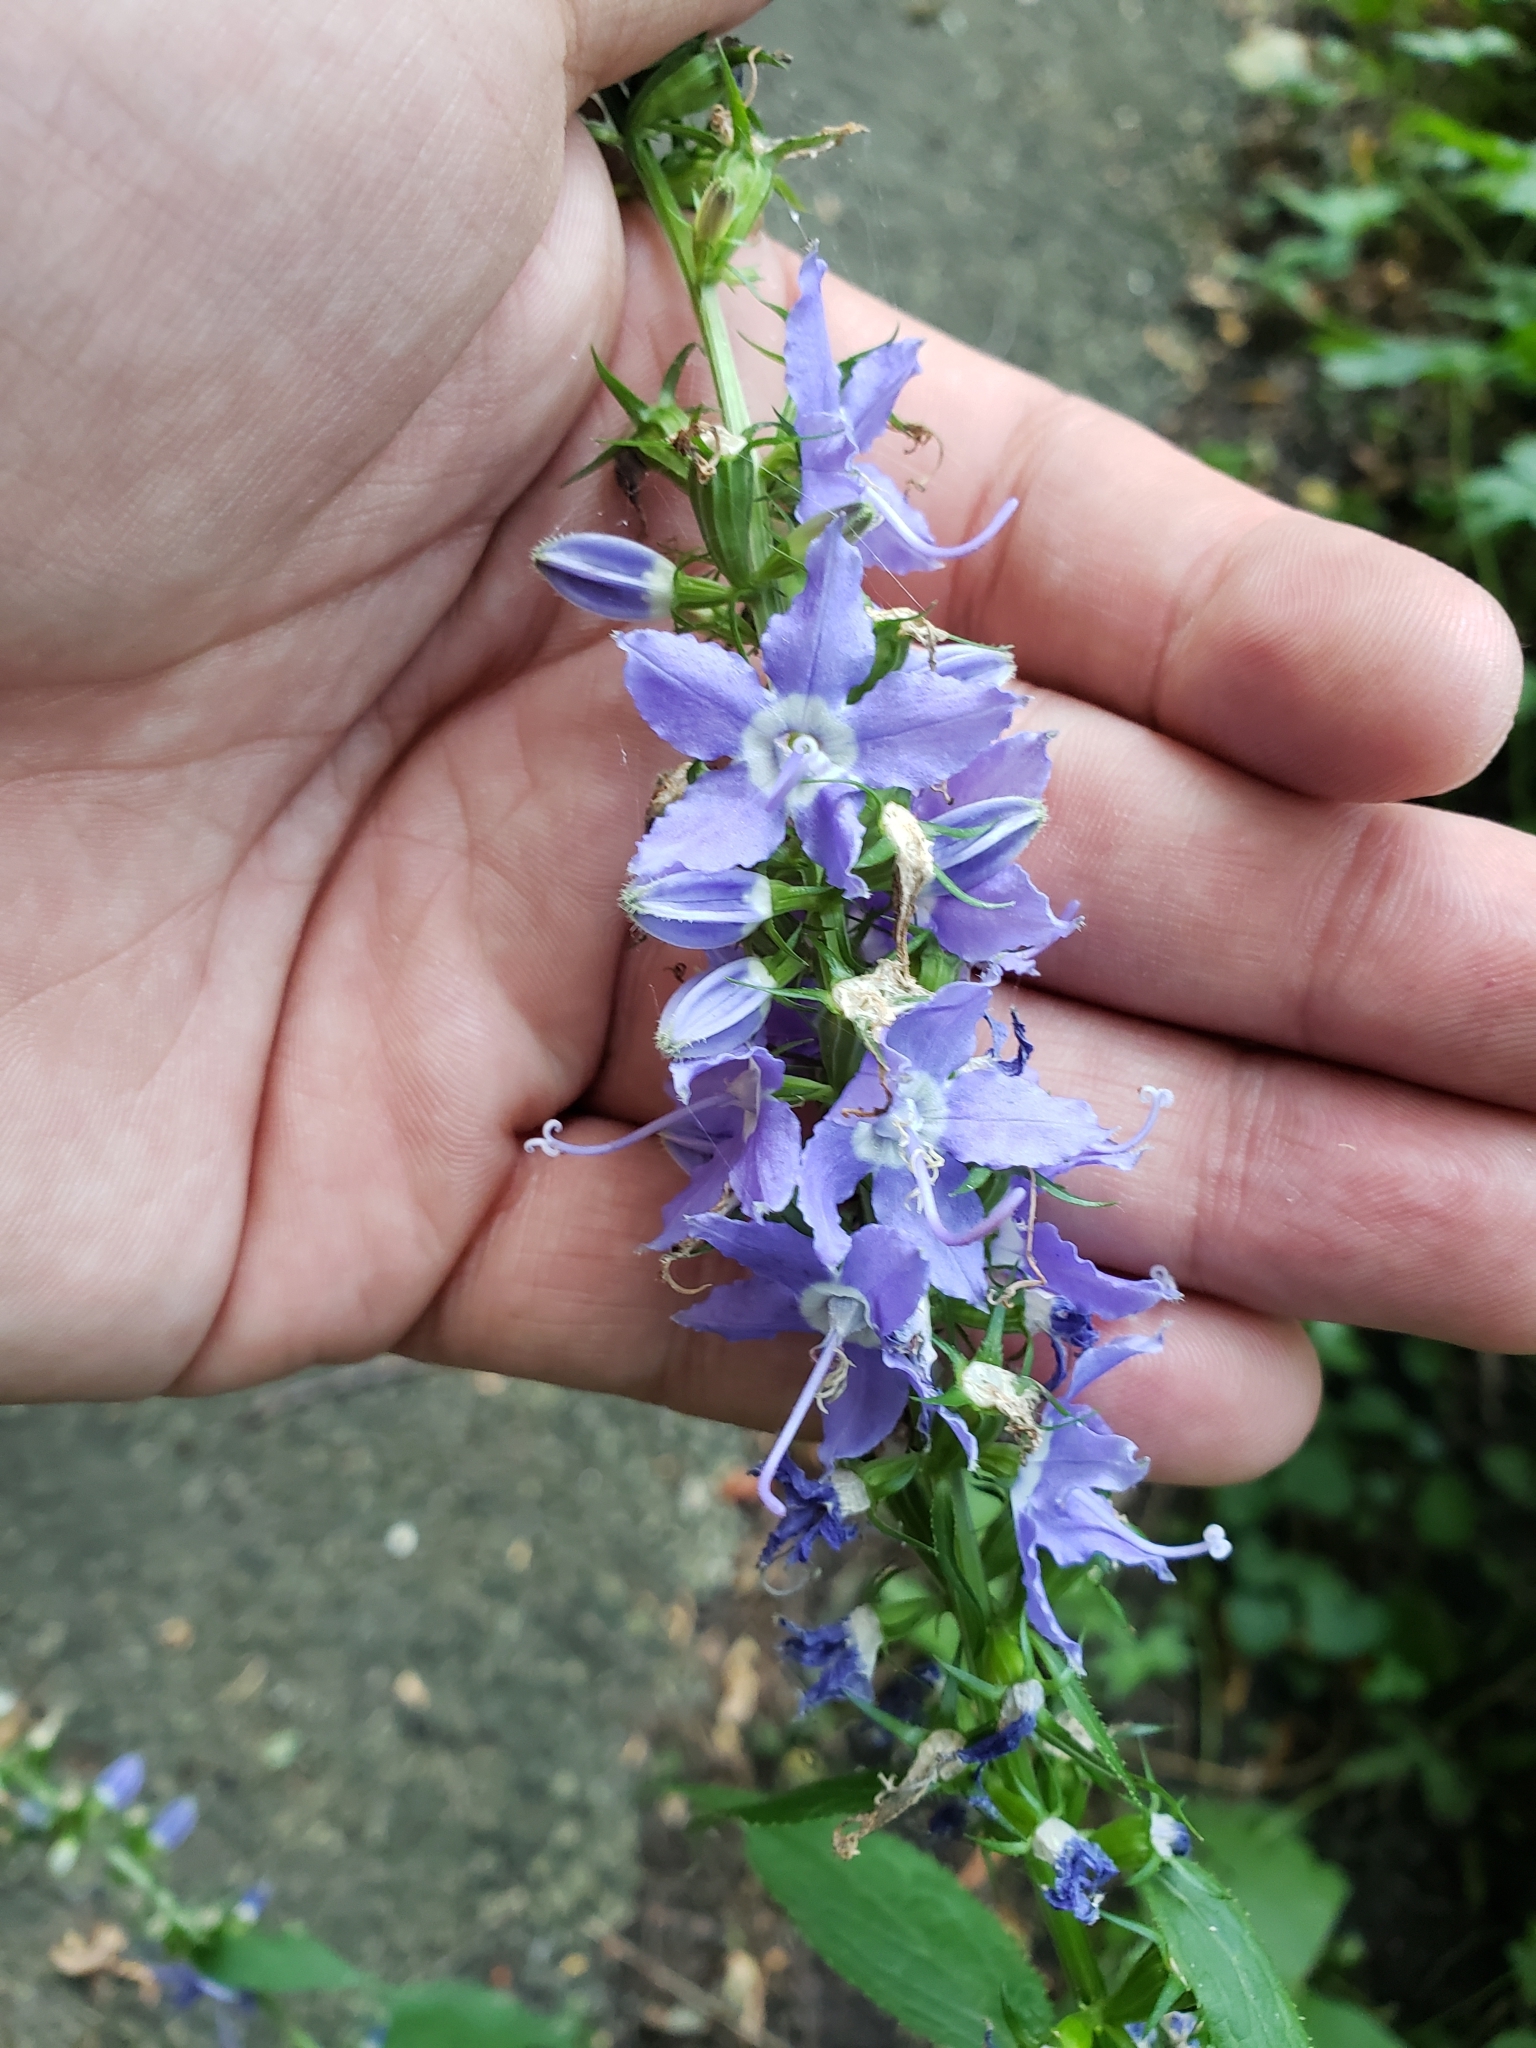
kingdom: Plantae
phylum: Tracheophyta
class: Magnoliopsida
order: Asterales
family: Campanulaceae
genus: Campanulastrum
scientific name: Campanulastrum americanum
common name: American bellflower
